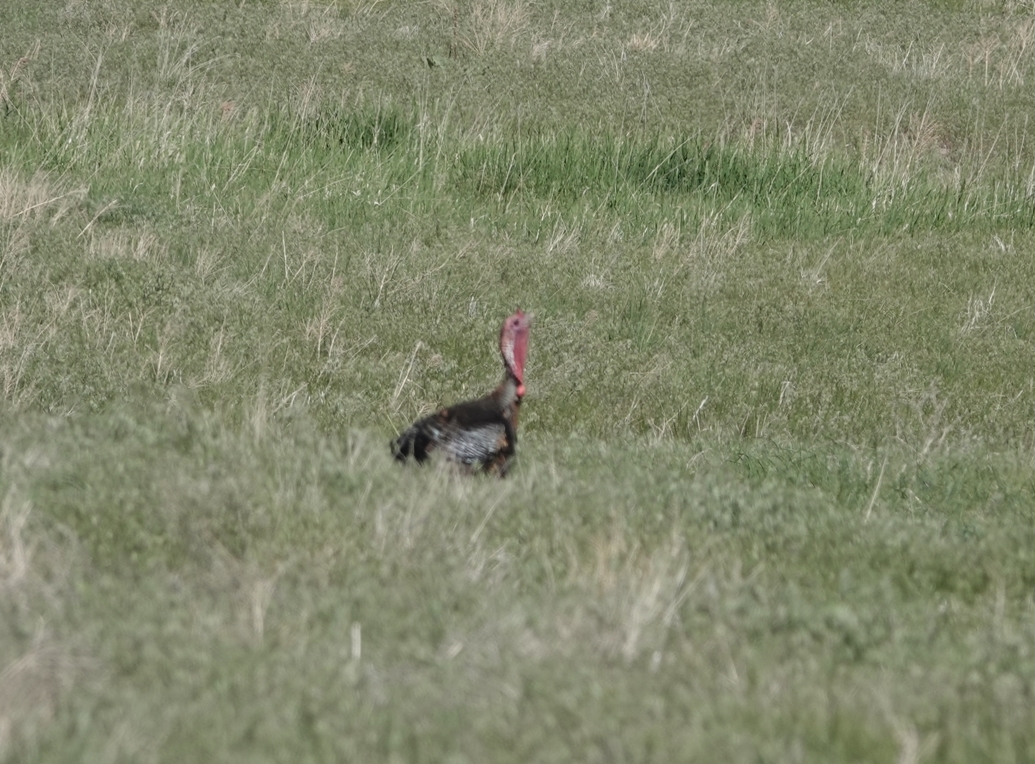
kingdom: Animalia
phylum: Chordata
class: Aves
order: Galliformes
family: Phasianidae
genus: Meleagris
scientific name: Meleagris gallopavo
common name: Wild turkey
